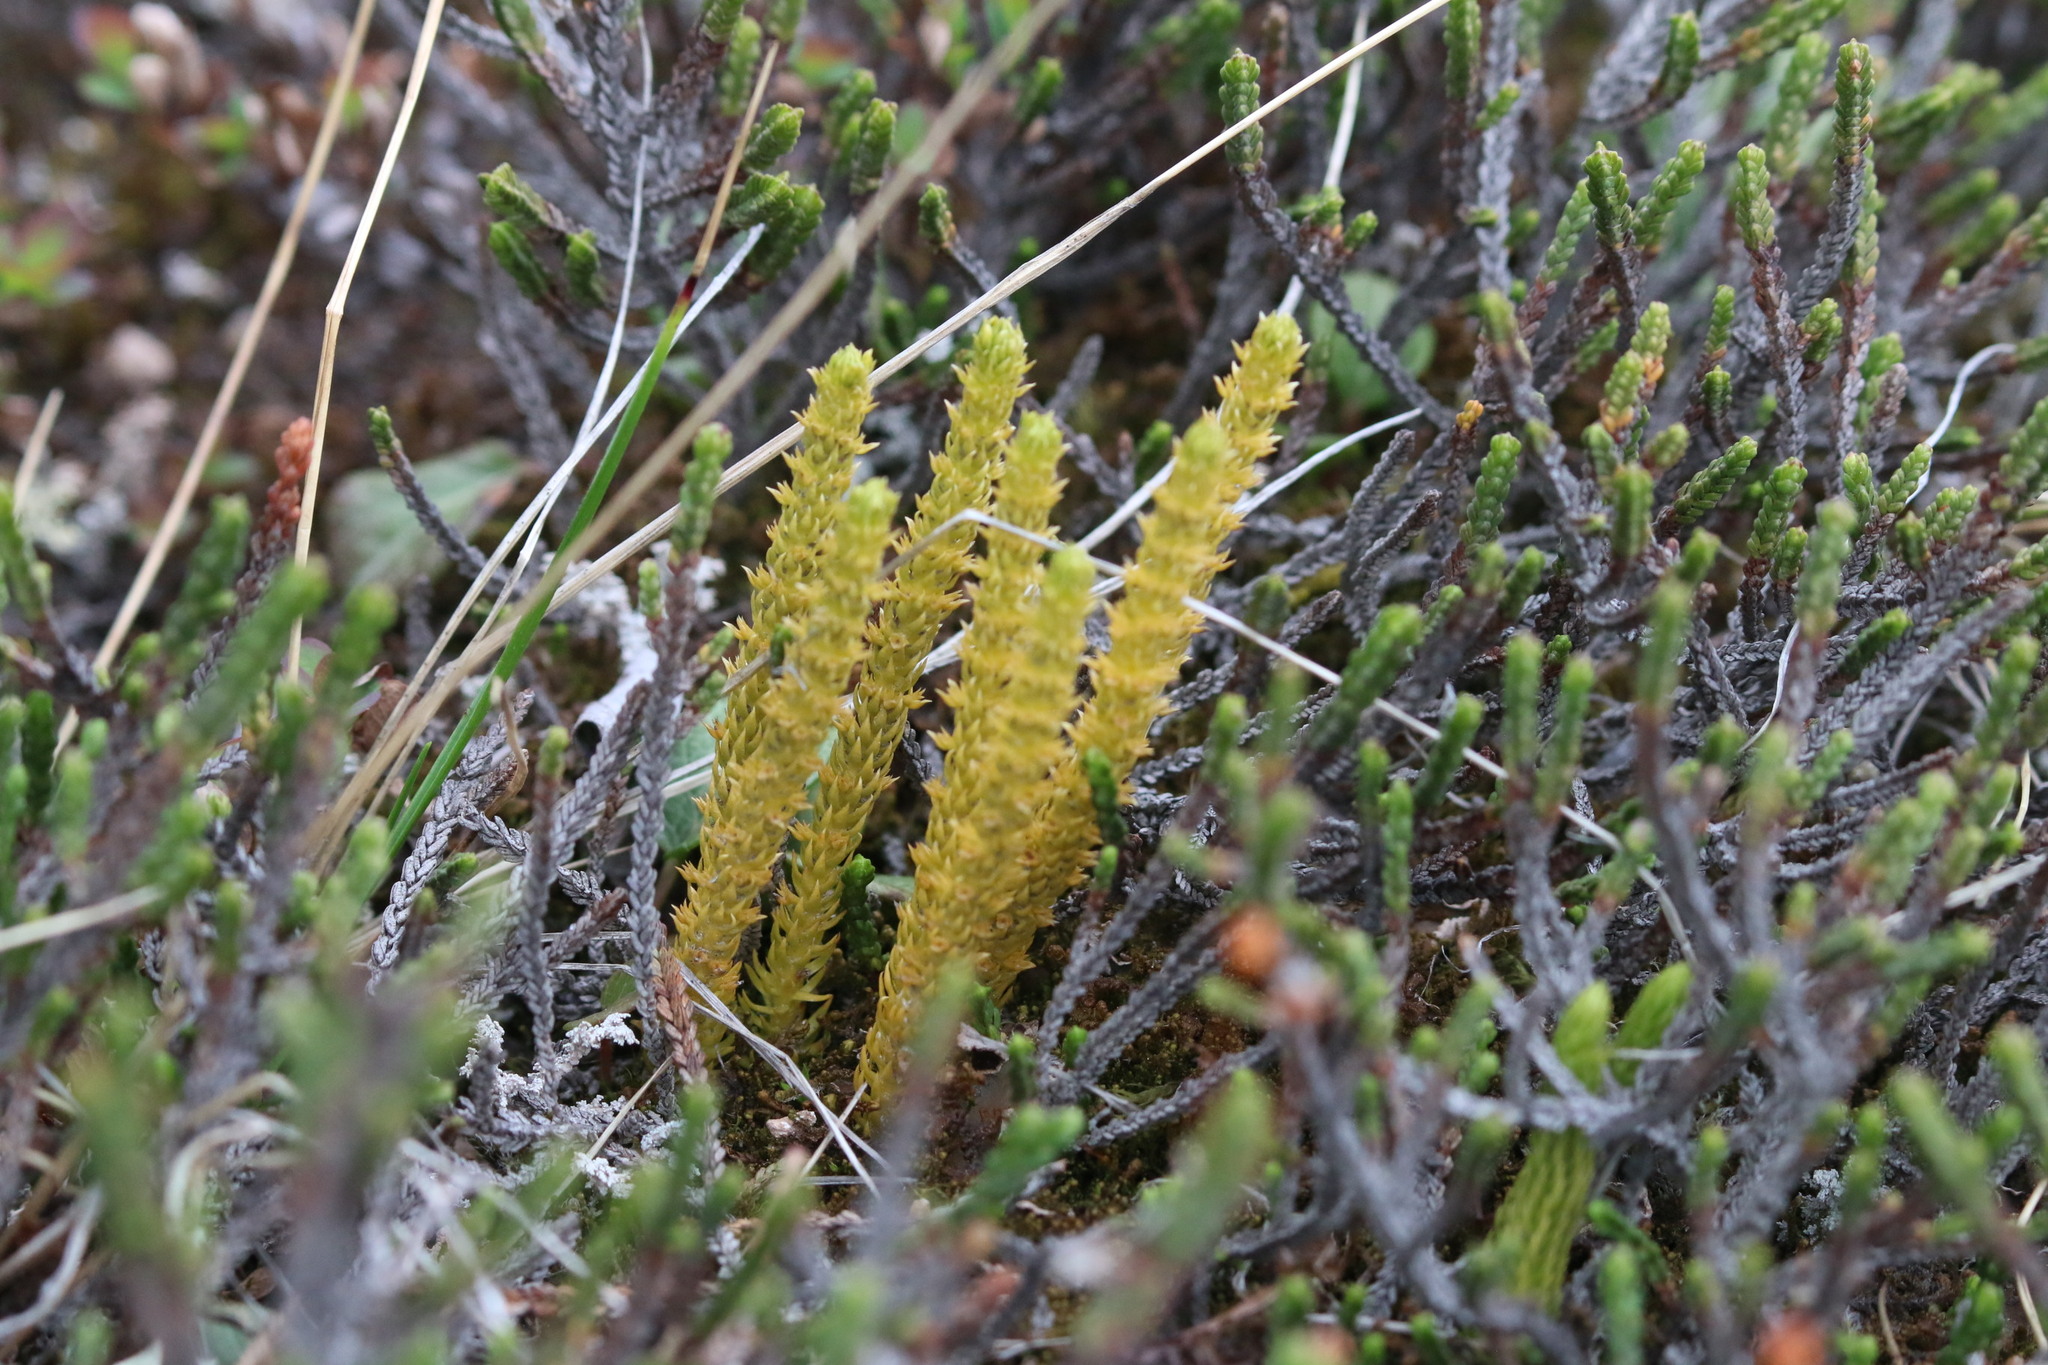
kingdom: Plantae
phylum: Tracheophyta
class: Lycopodiopsida
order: Lycopodiales
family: Lycopodiaceae
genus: Huperzia
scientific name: Huperzia continentalis
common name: Continental firmoss
